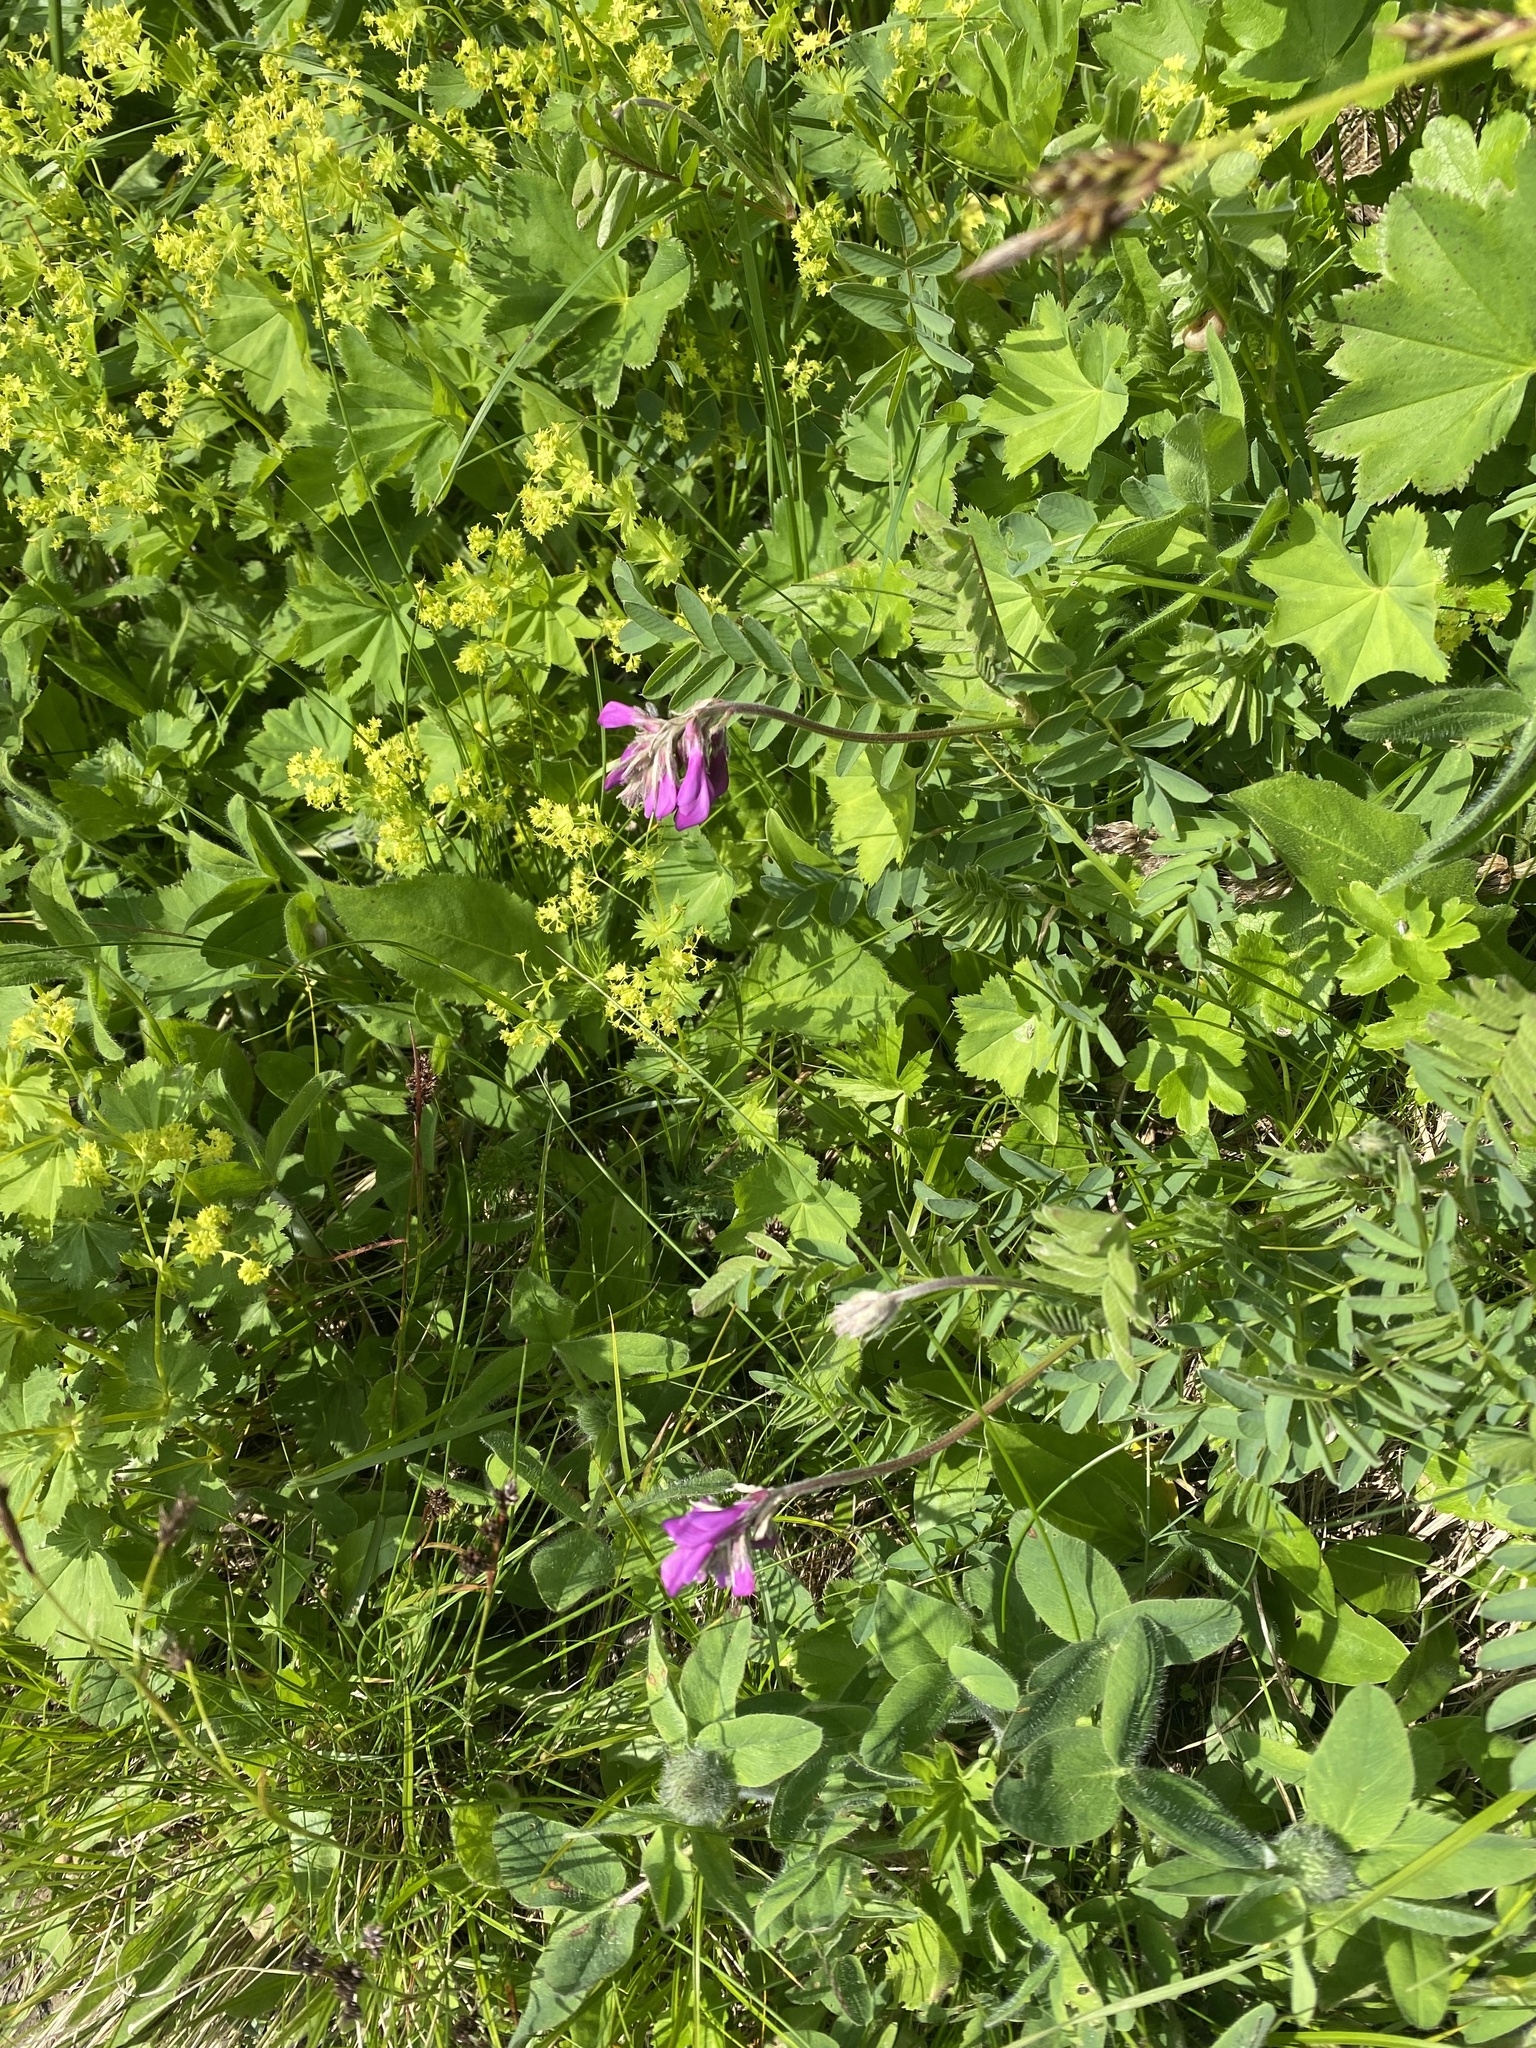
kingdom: Plantae
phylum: Tracheophyta
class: Magnoliopsida
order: Fabales
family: Fabaceae
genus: Hedysarum
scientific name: Hedysarum caucasicum
